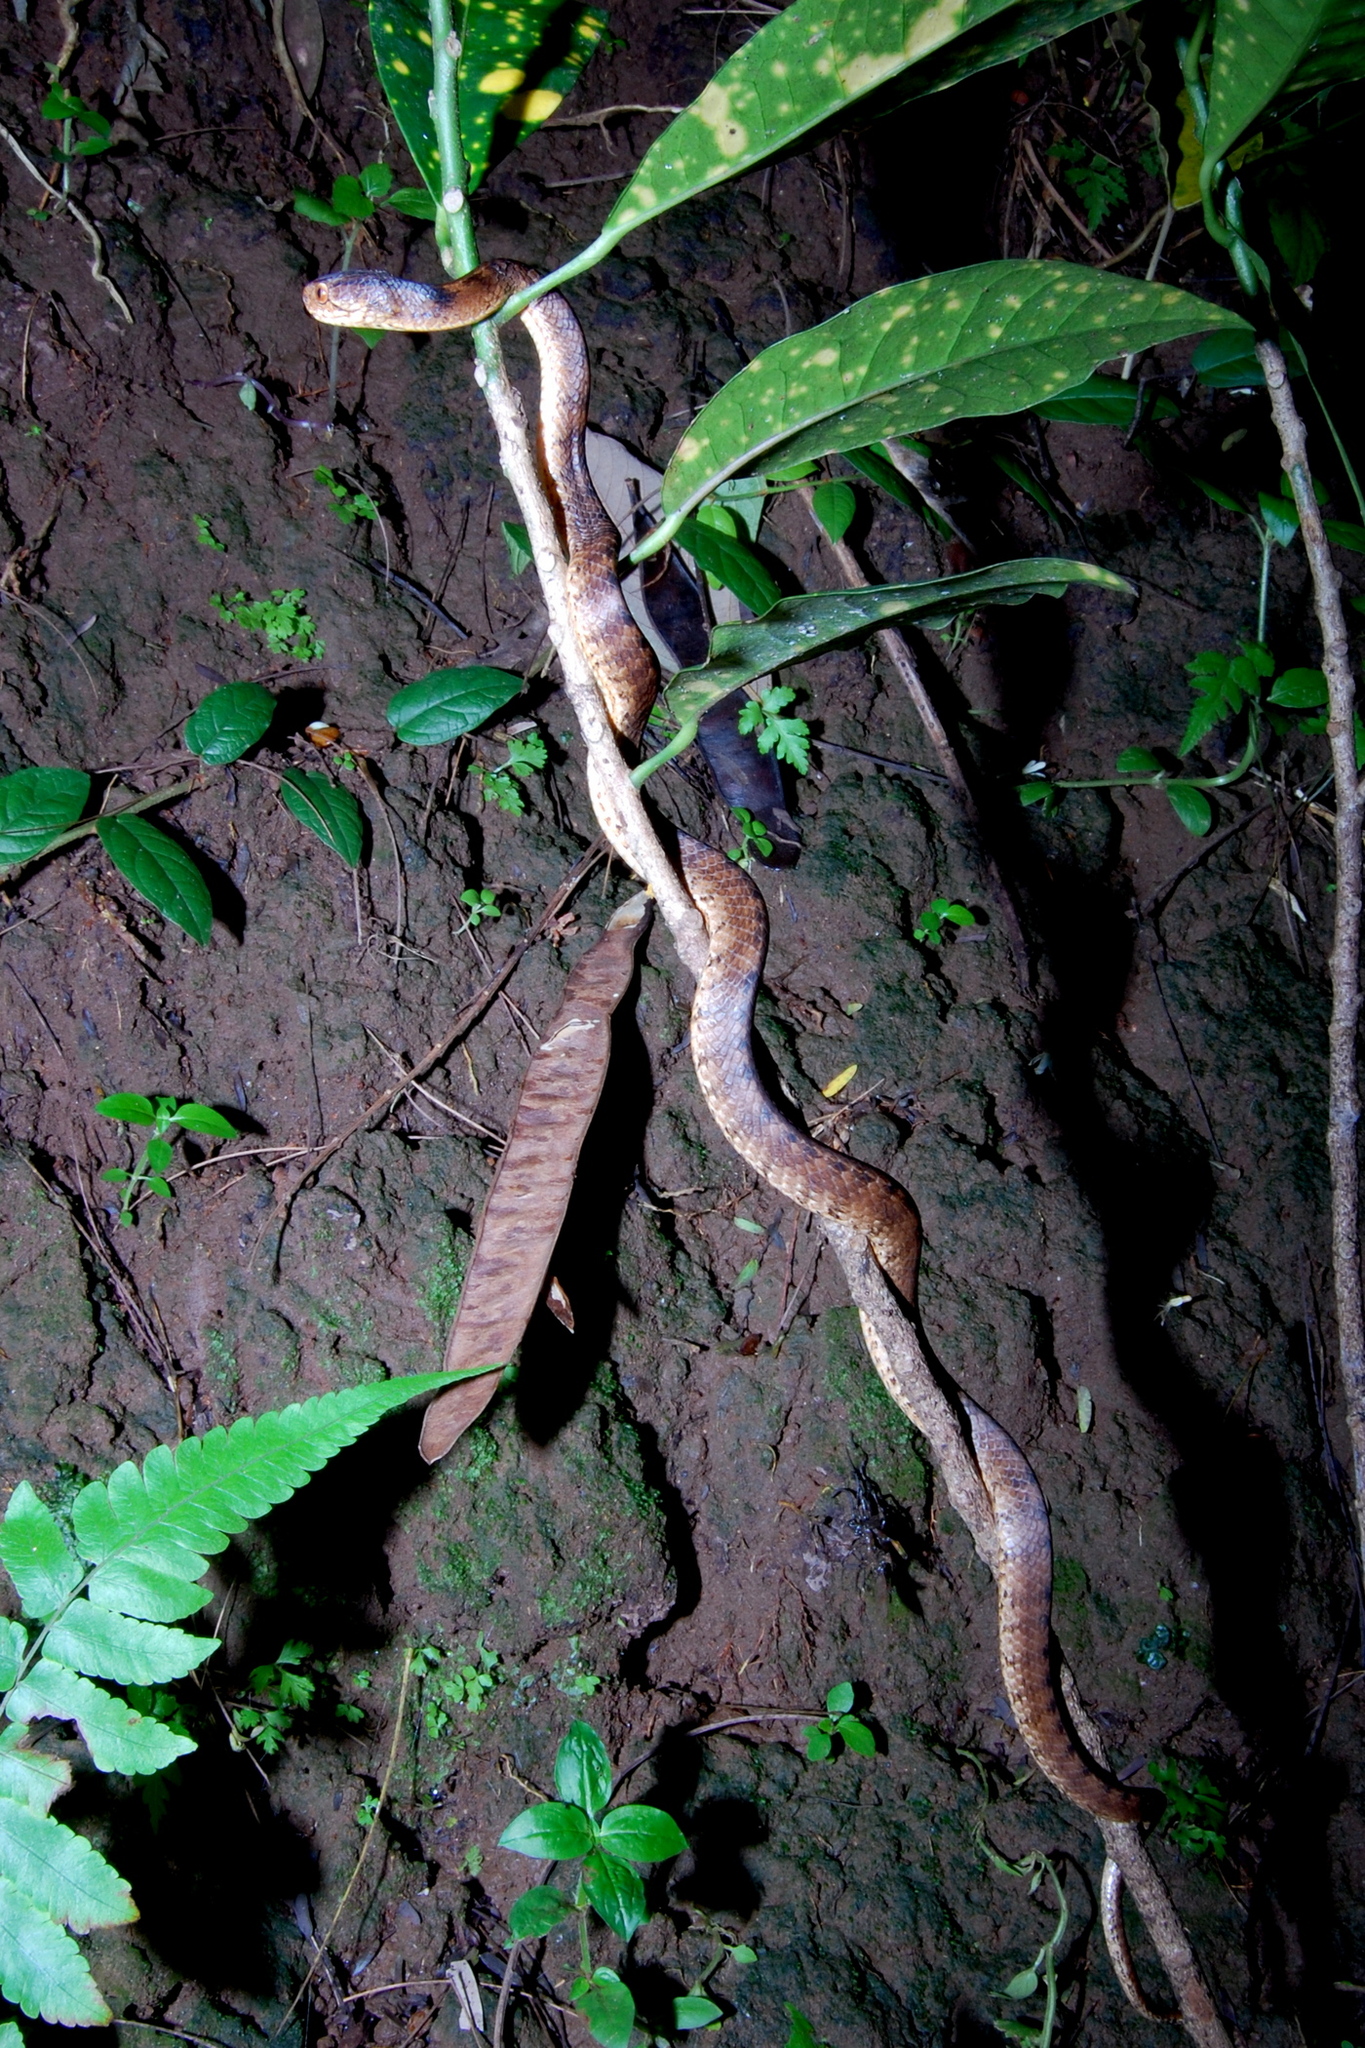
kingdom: Animalia
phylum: Chordata
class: Squamata
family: Pareidae
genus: Pareas
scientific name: Pareas carinatus
